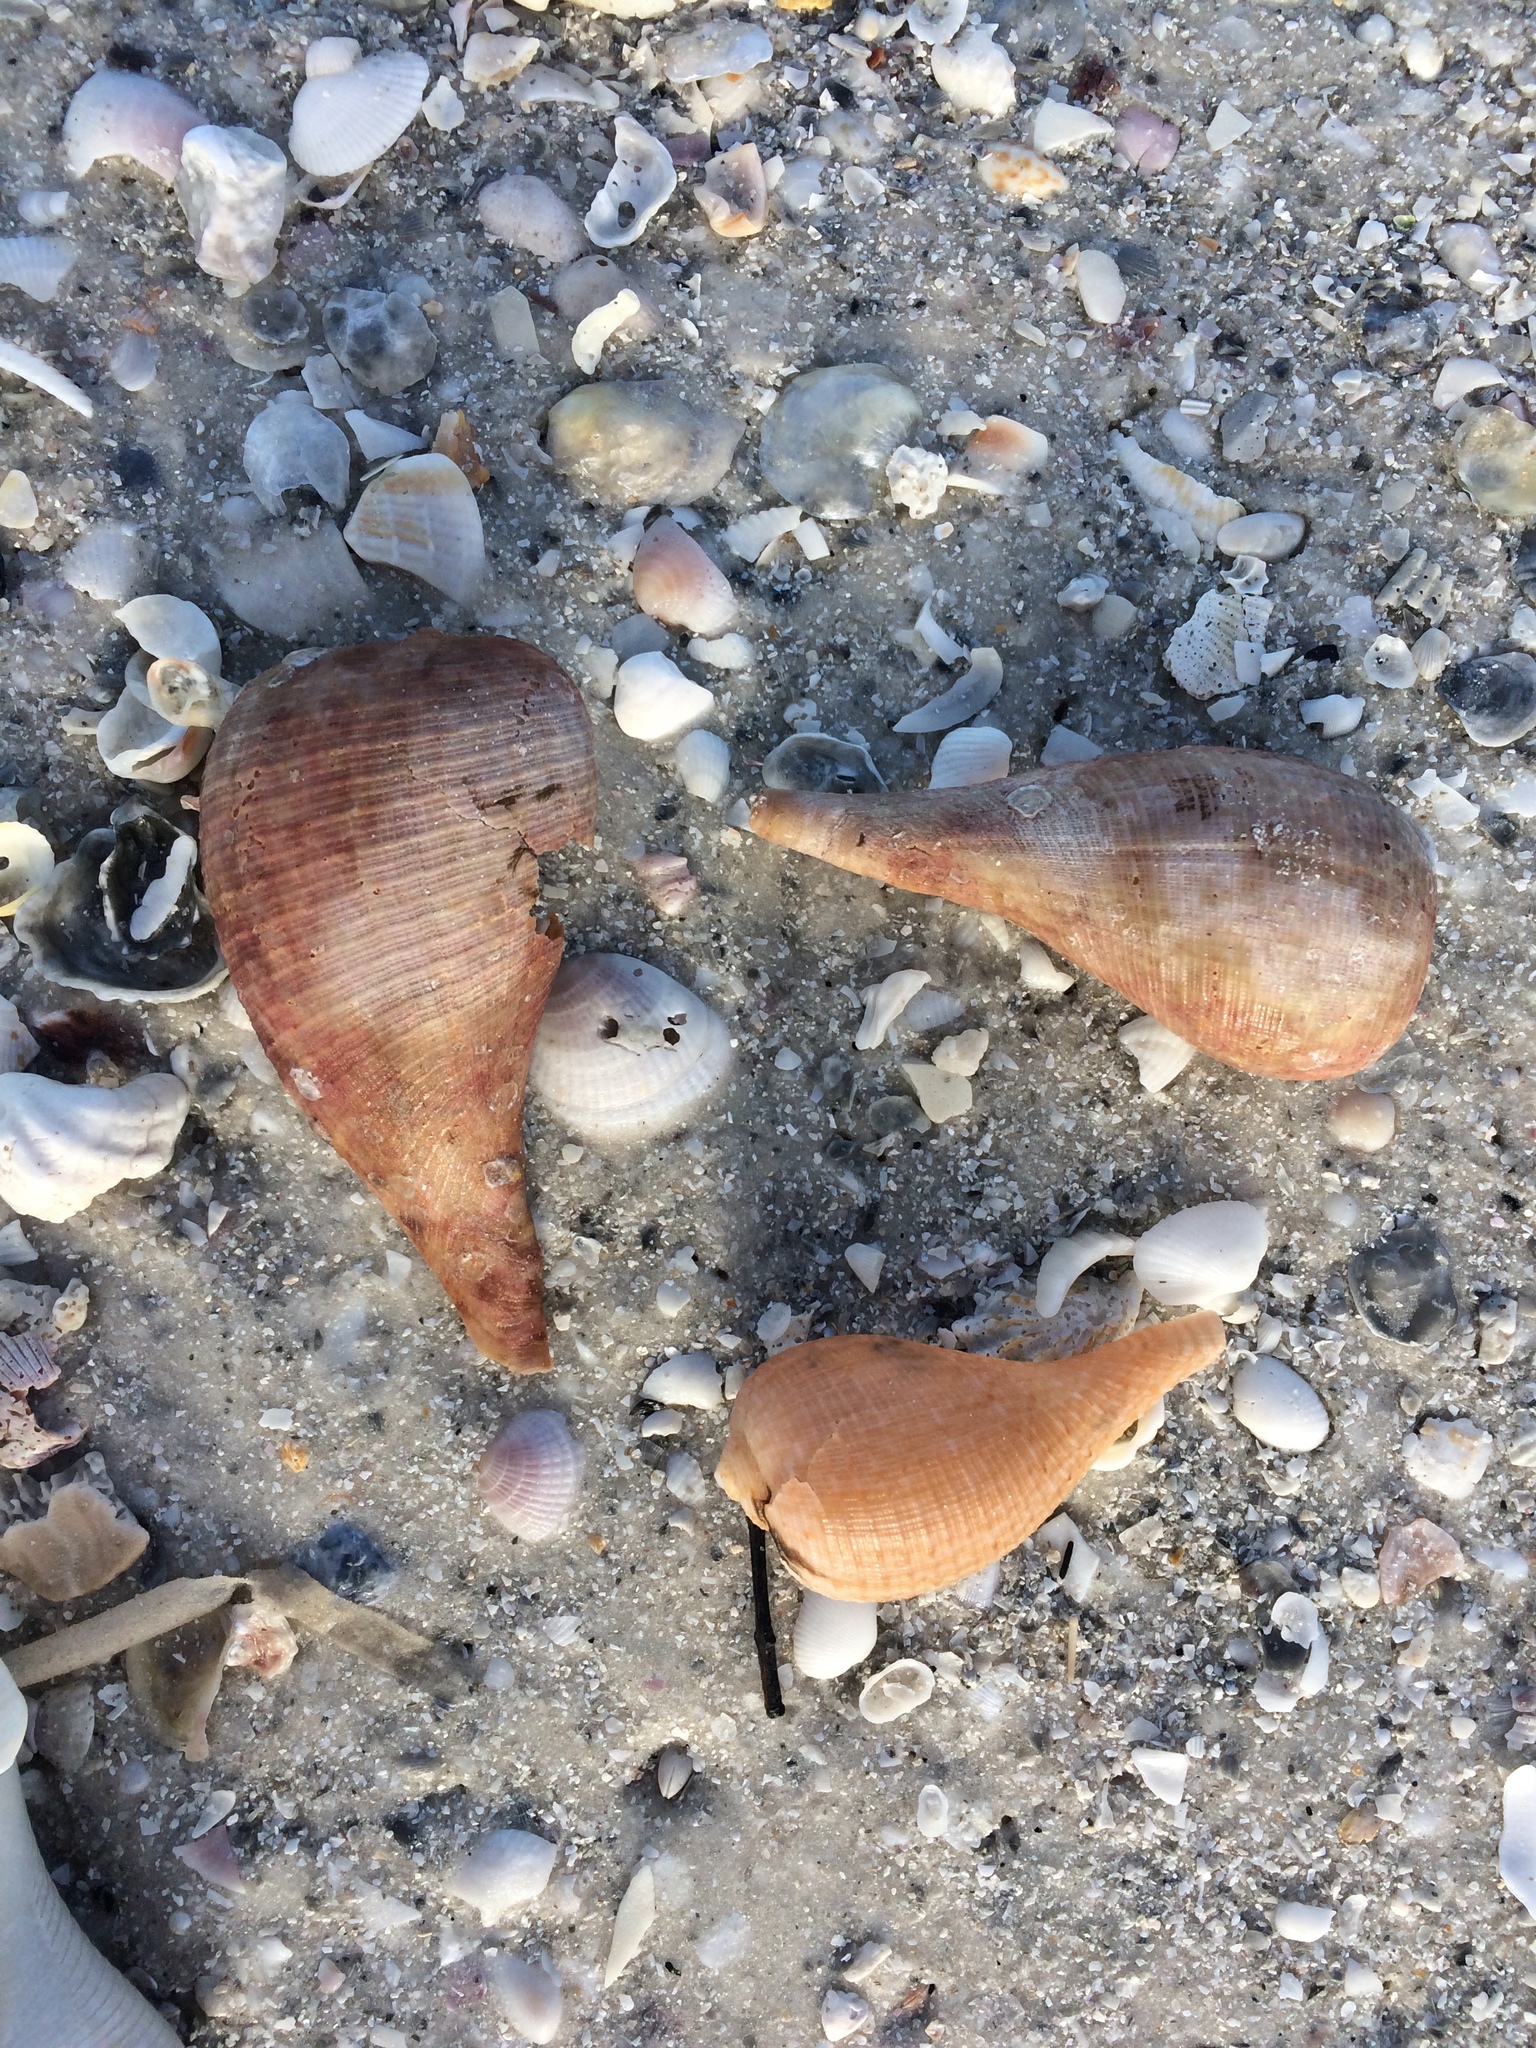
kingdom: Animalia
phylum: Mollusca
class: Gastropoda
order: Littorinimorpha
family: Ficidae
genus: Ficus
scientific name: Ficus papyratia
